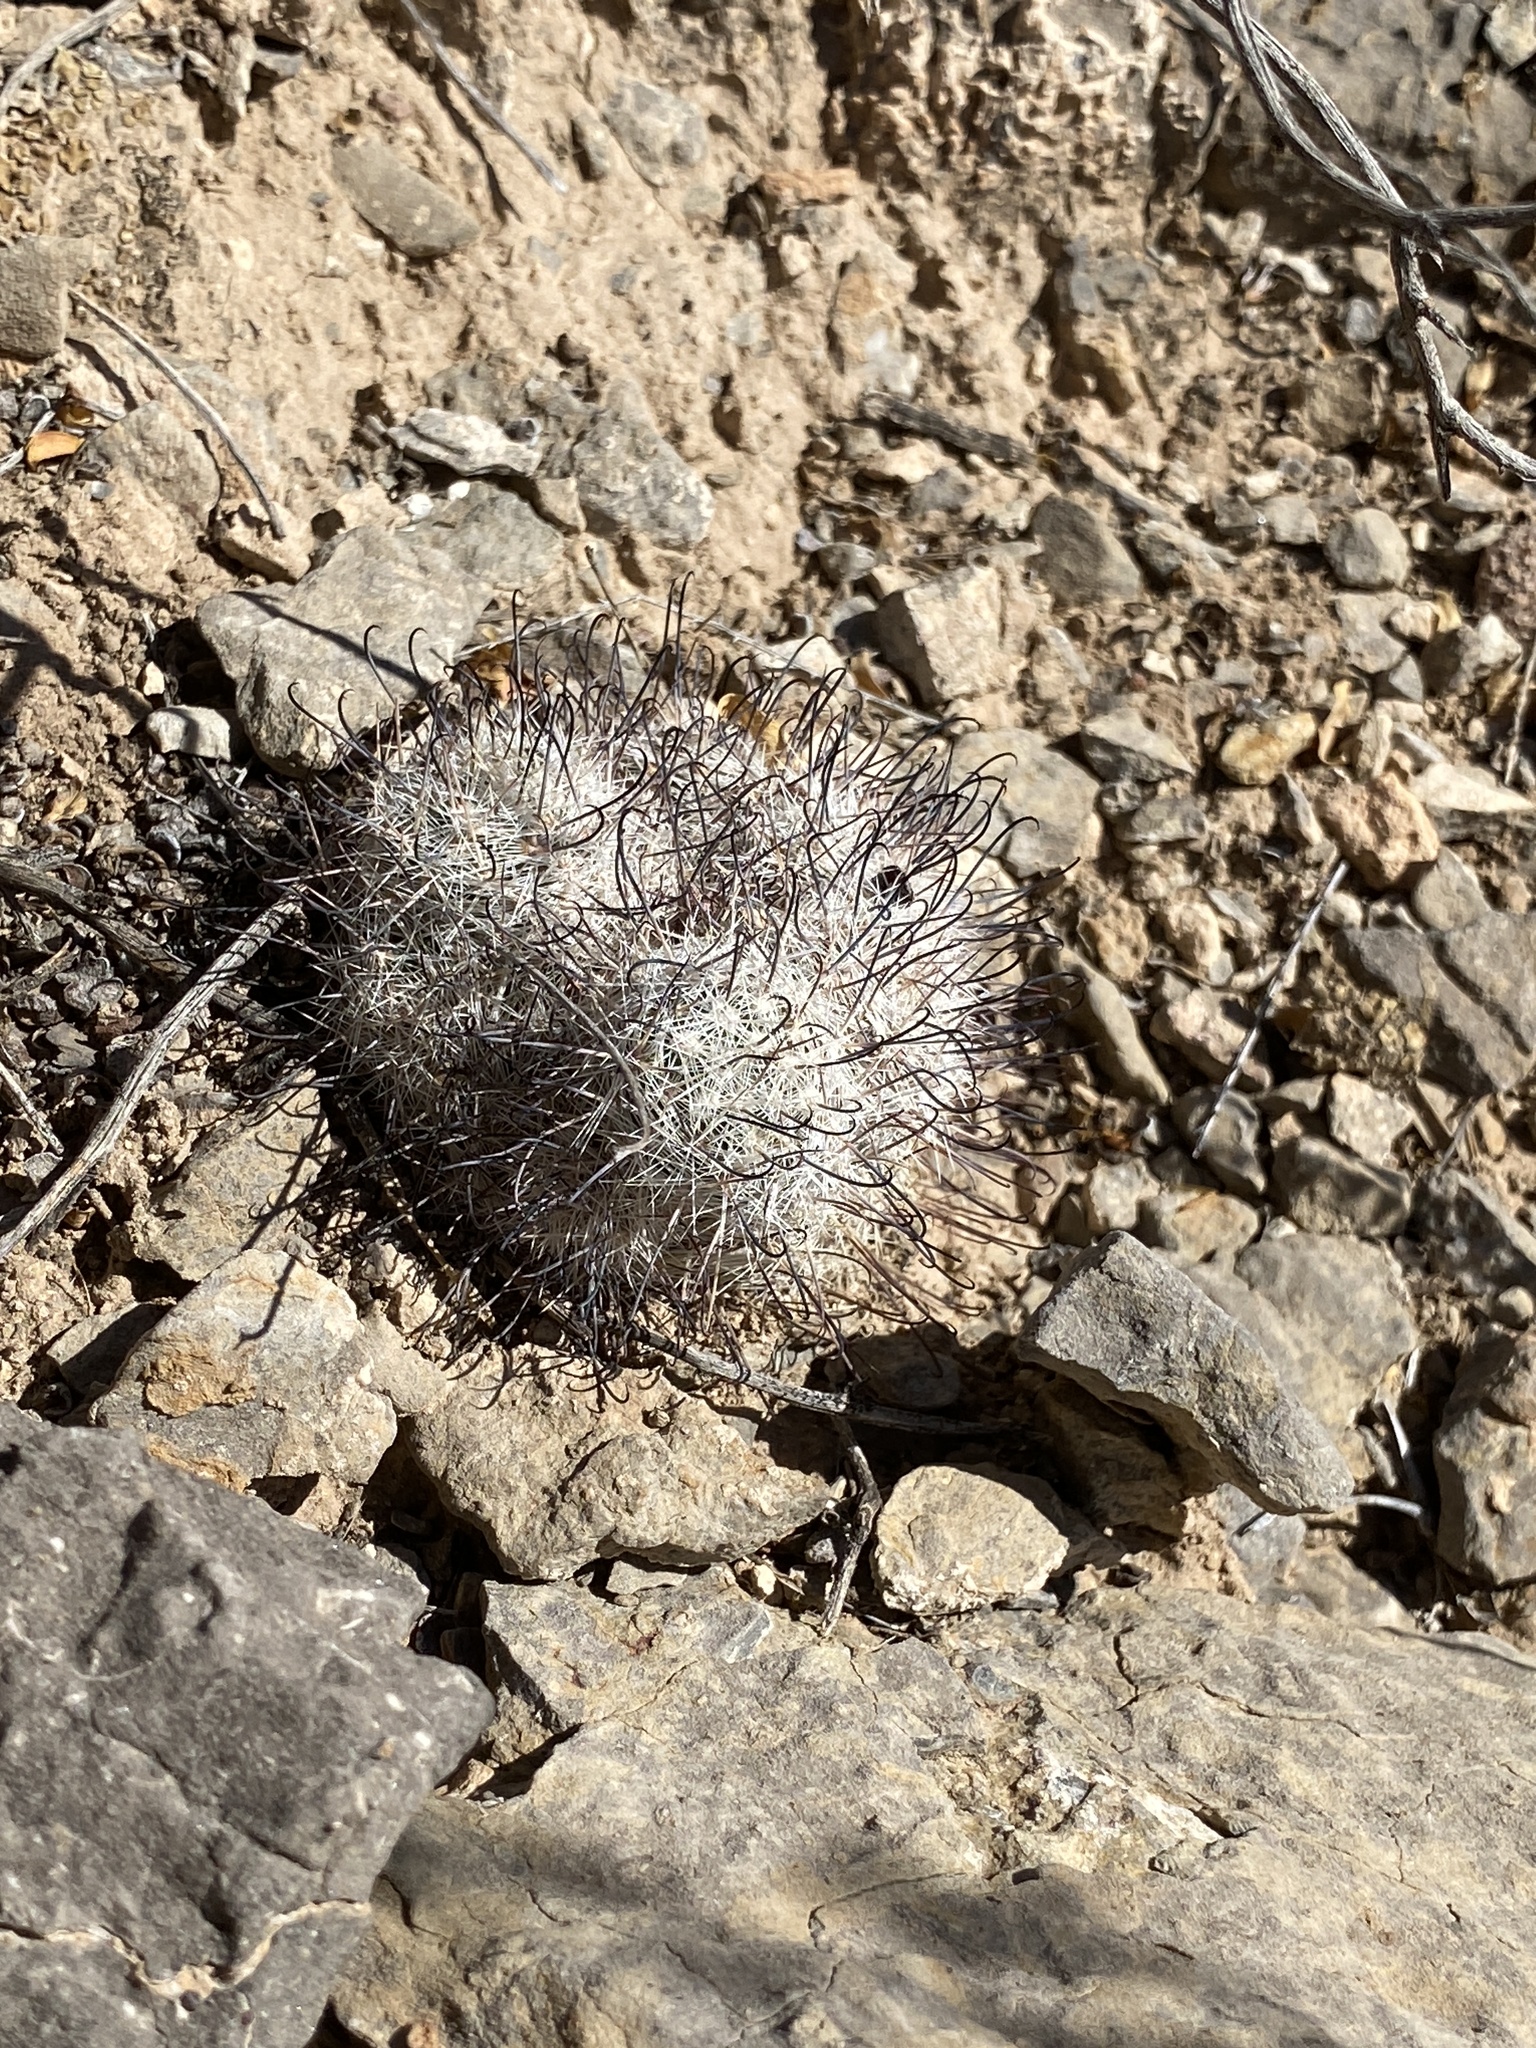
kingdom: Plantae
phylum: Tracheophyta
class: Magnoliopsida
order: Caryophyllales
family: Cactaceae
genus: Cochemiea
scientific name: Cochemiea grahamii
